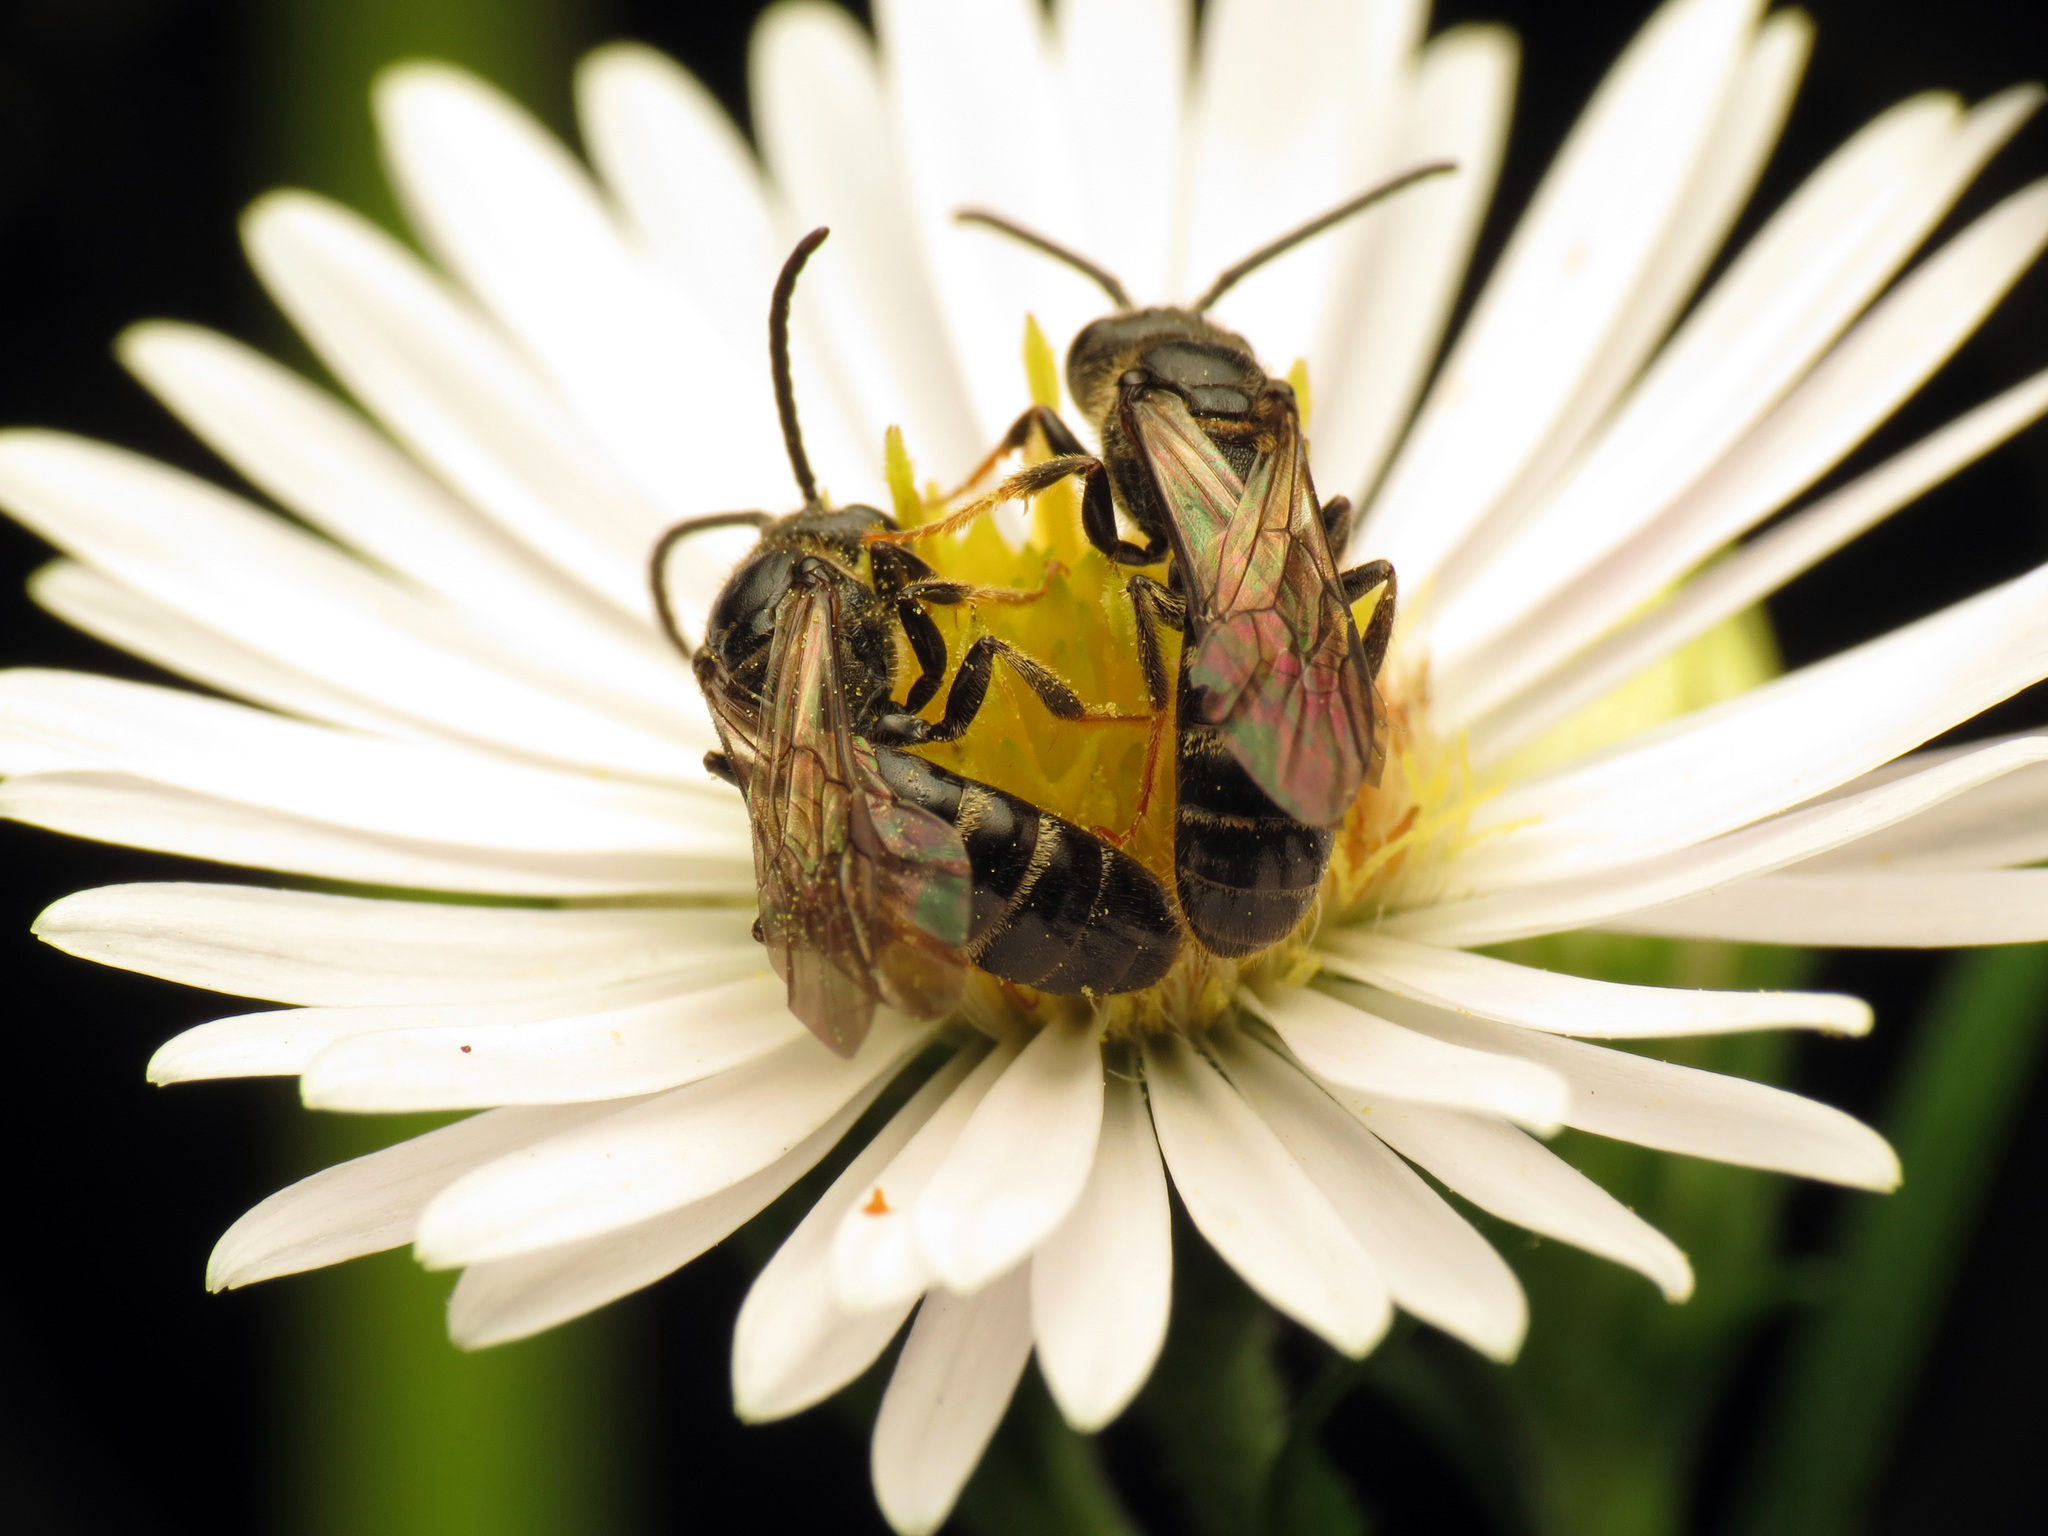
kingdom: Animalia
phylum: Arthropoda
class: Insecta
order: Hymenoptera
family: Halictidae
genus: Lasioglossum
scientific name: Lasioglossum fuscipenne
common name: Brown-winged sweat bee
